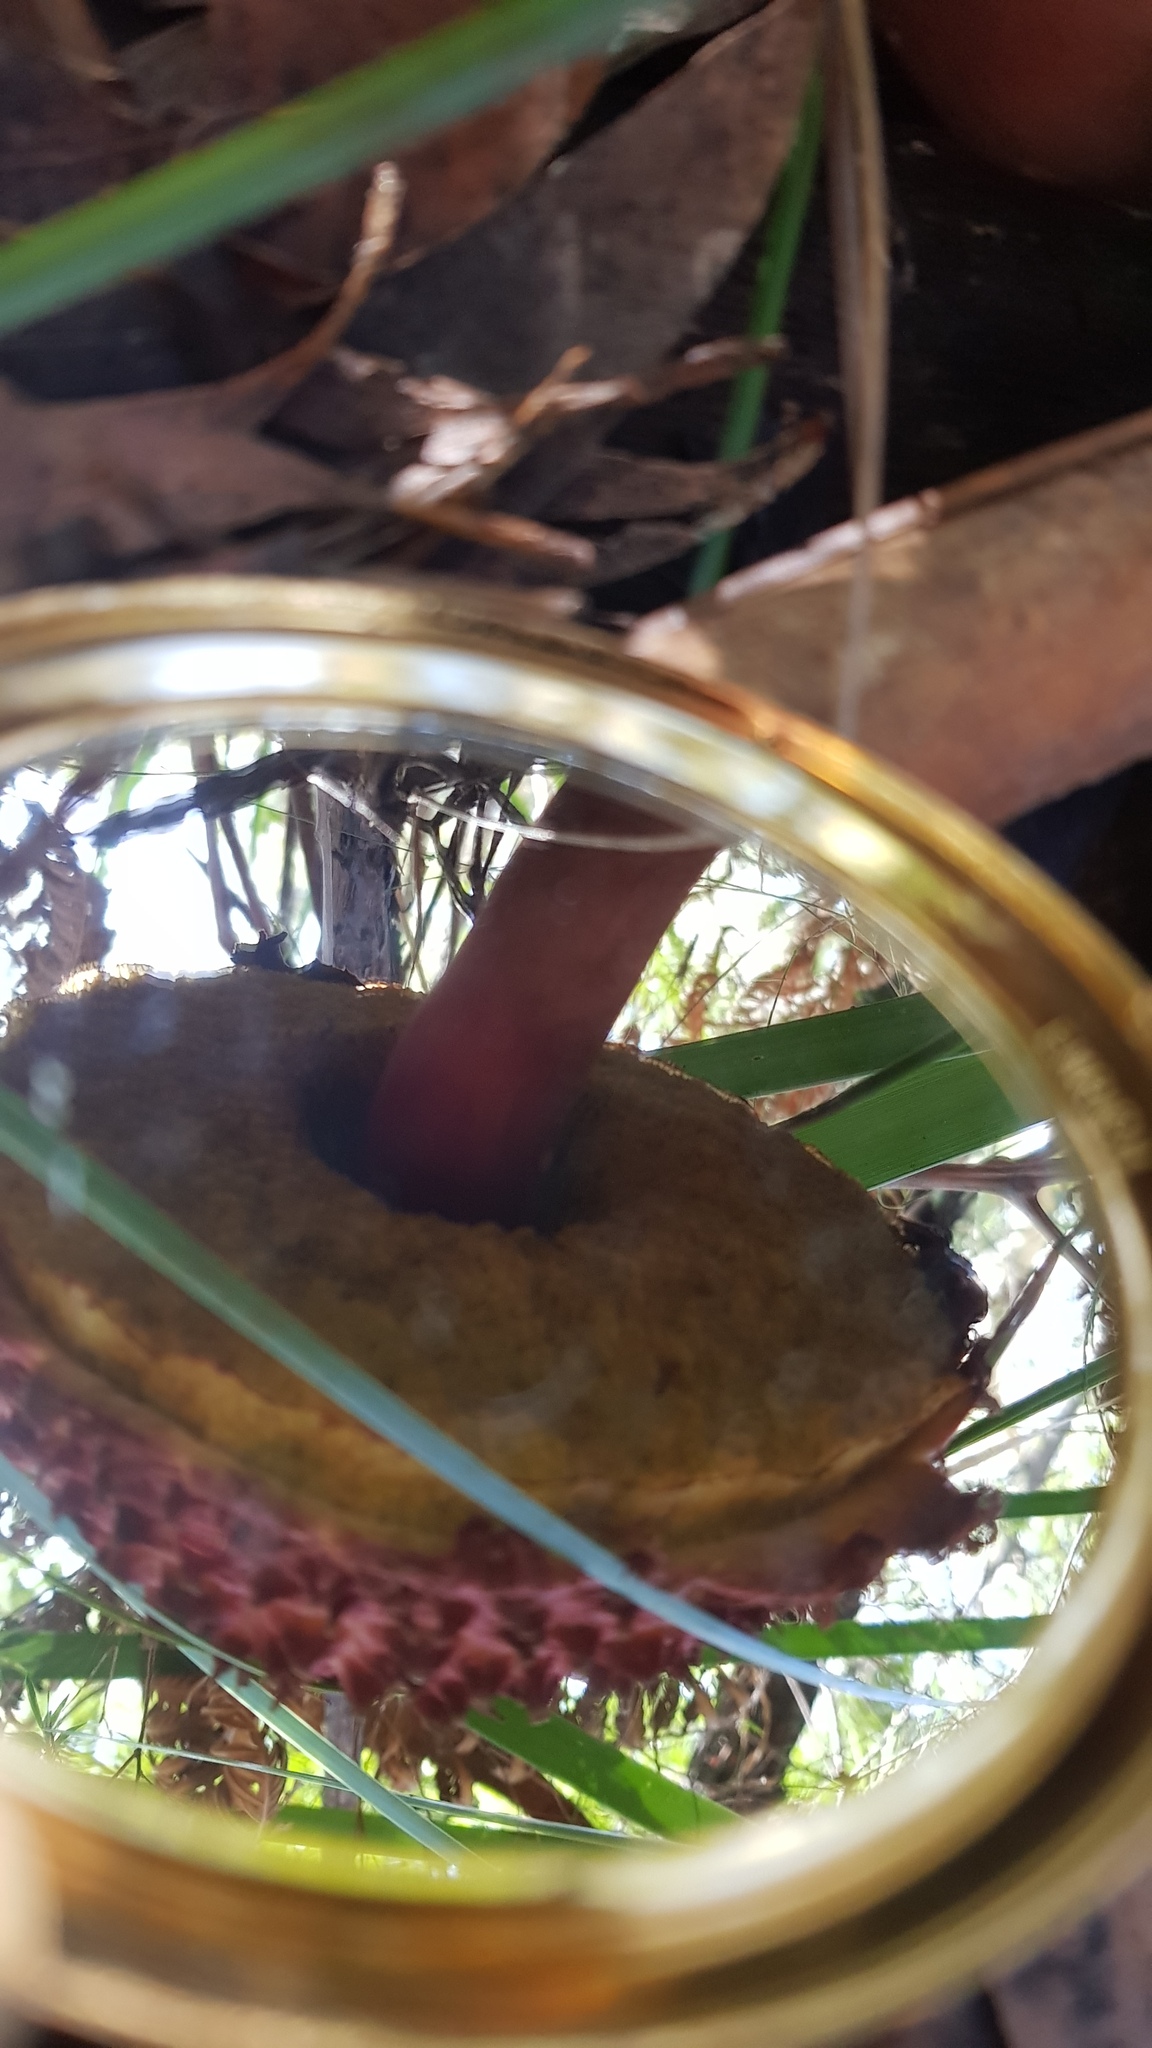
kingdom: Fungi
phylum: Basidiomycota
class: Agaricomycetes
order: Boletales
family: Boletaceae
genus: Boletellus
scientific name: Boletellus emodensis
